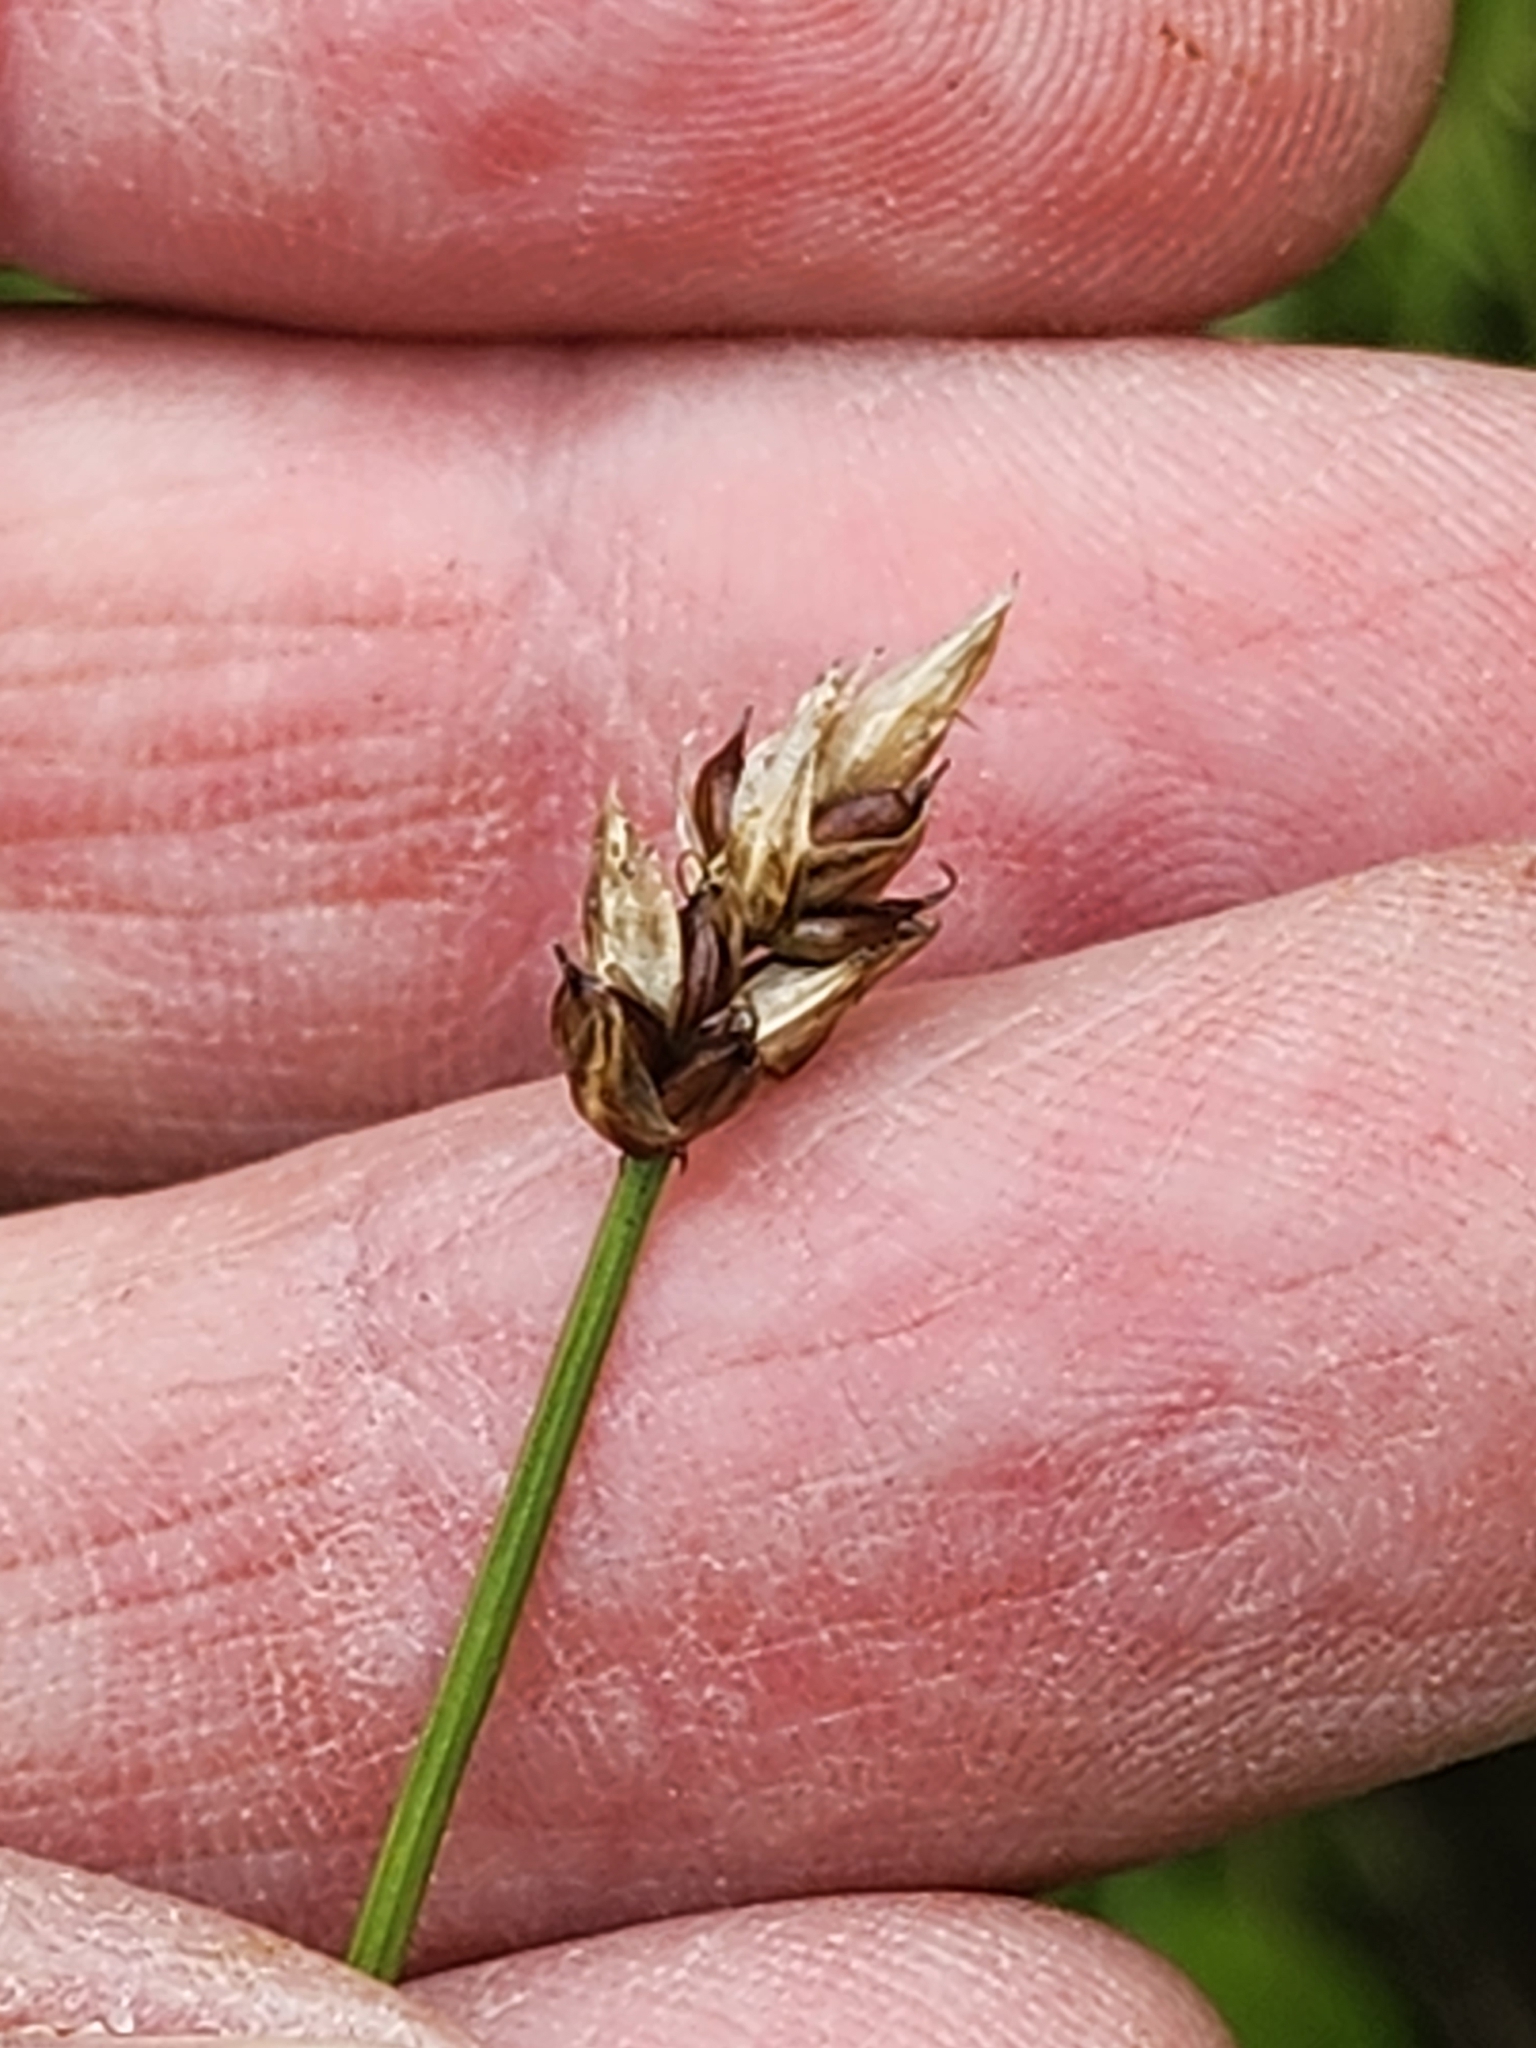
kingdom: Plantae
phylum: Tracheophyta
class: Liliopsida
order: Poales
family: Cyperaceae
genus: Carex
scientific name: Carex chordorrhiza
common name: String sedge
